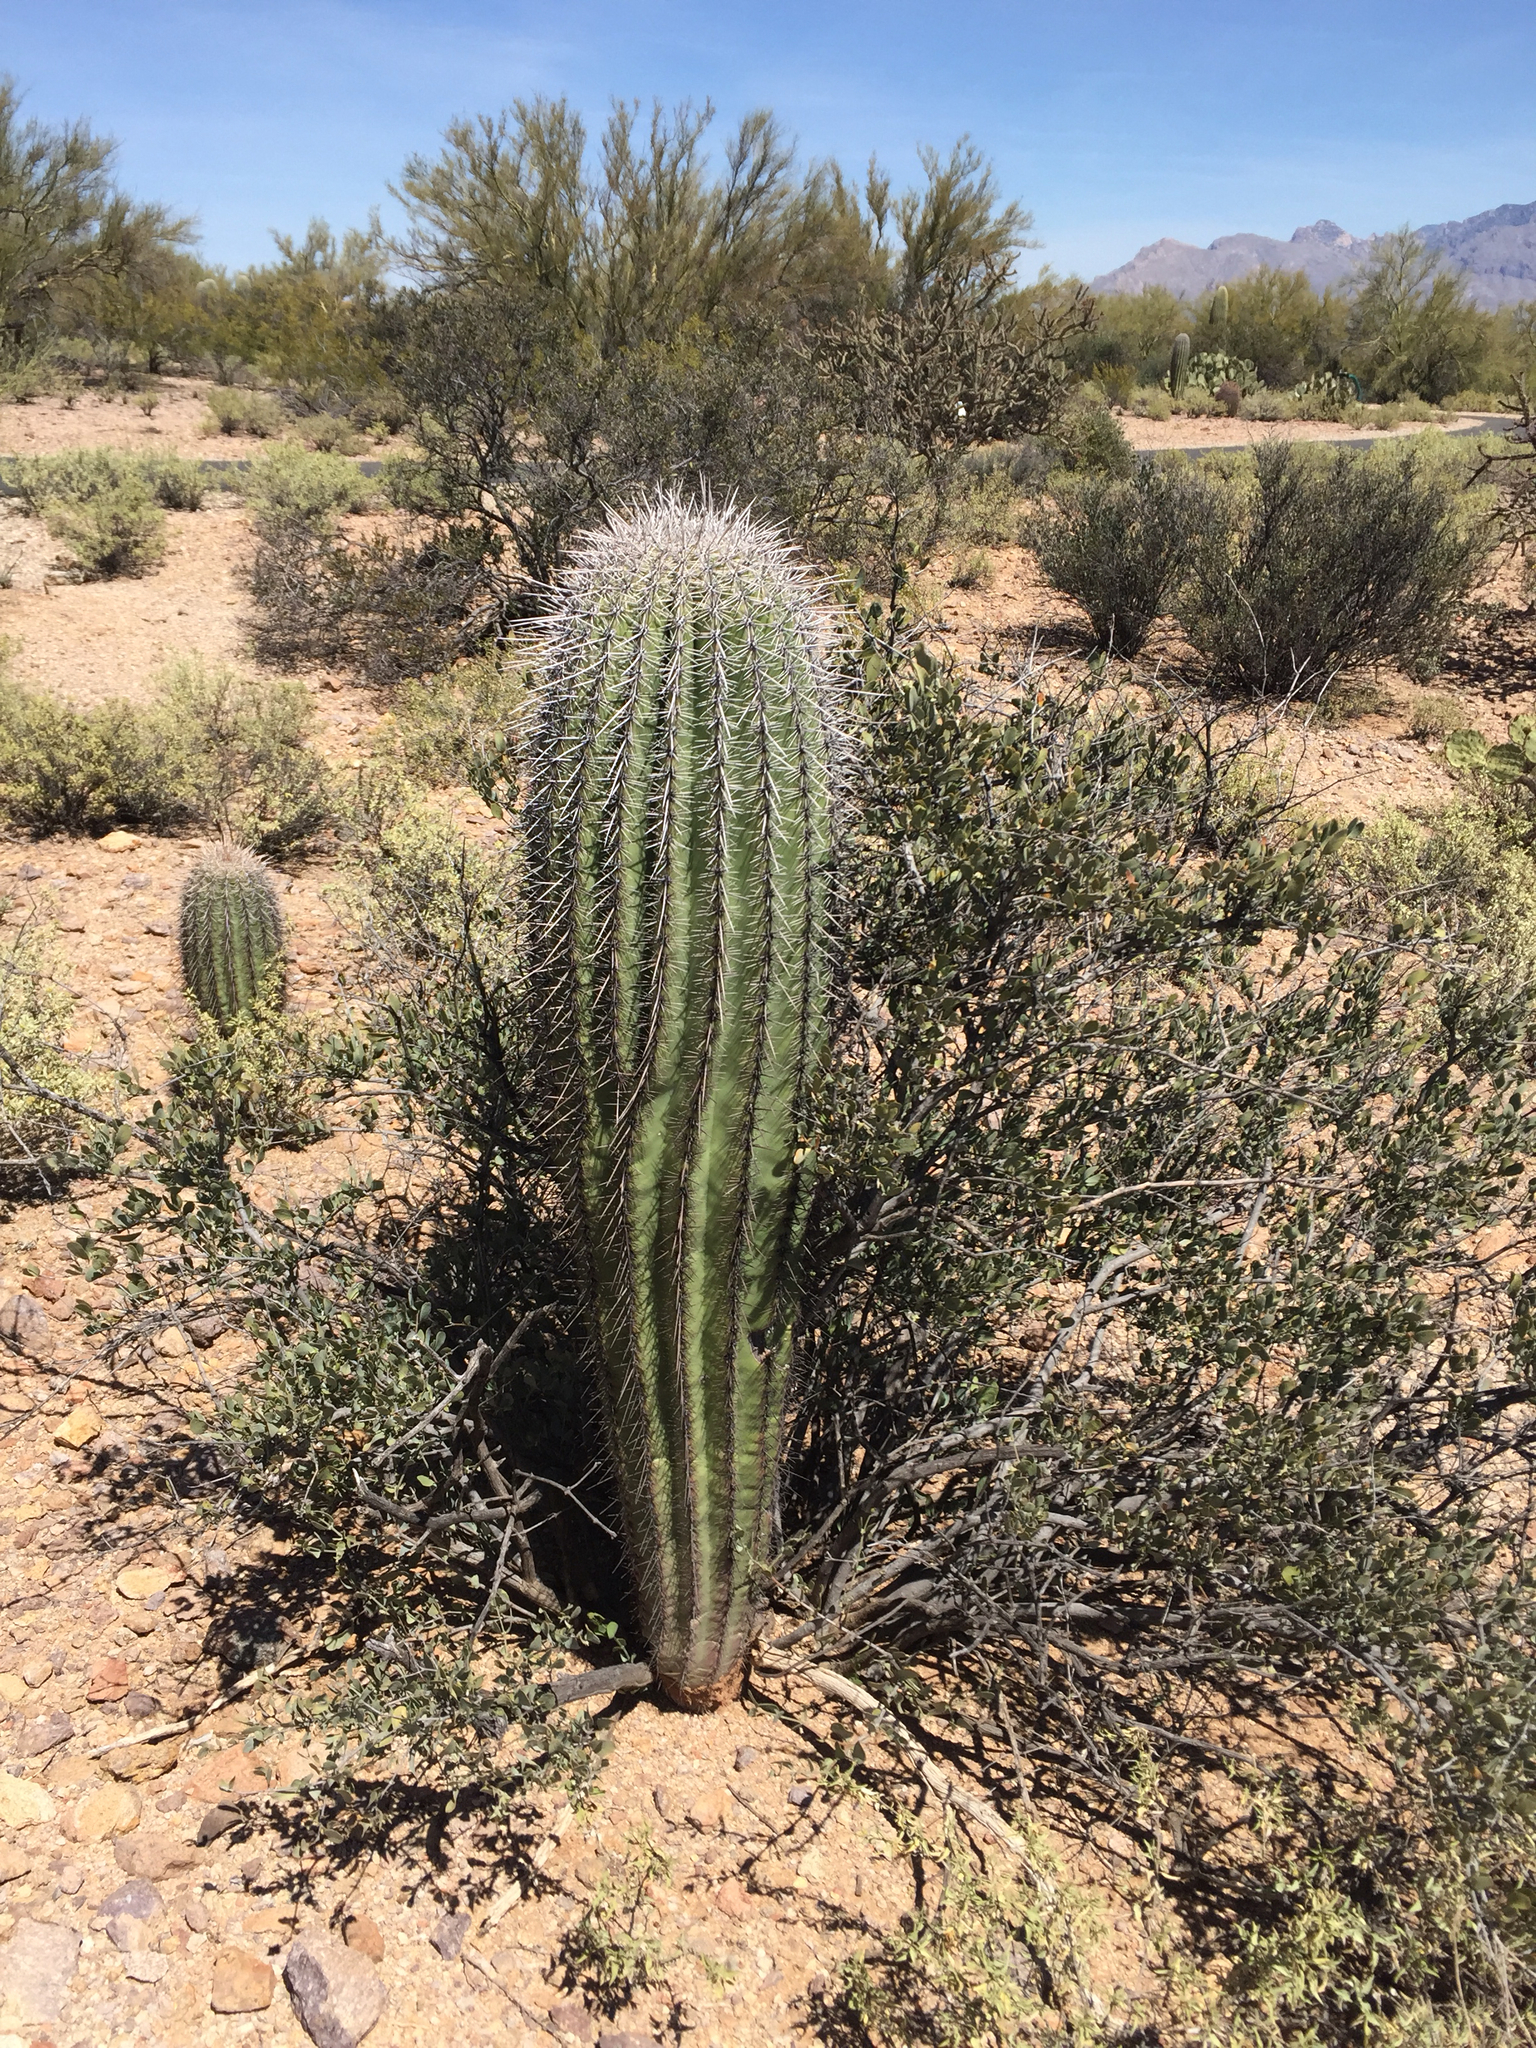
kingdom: Plantae
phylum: Tracheophyta
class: Magnoliopsida
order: Caryophyllales
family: Cactaceae
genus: Carnegiea
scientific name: Carnegiea gigantea
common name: Saguaro
